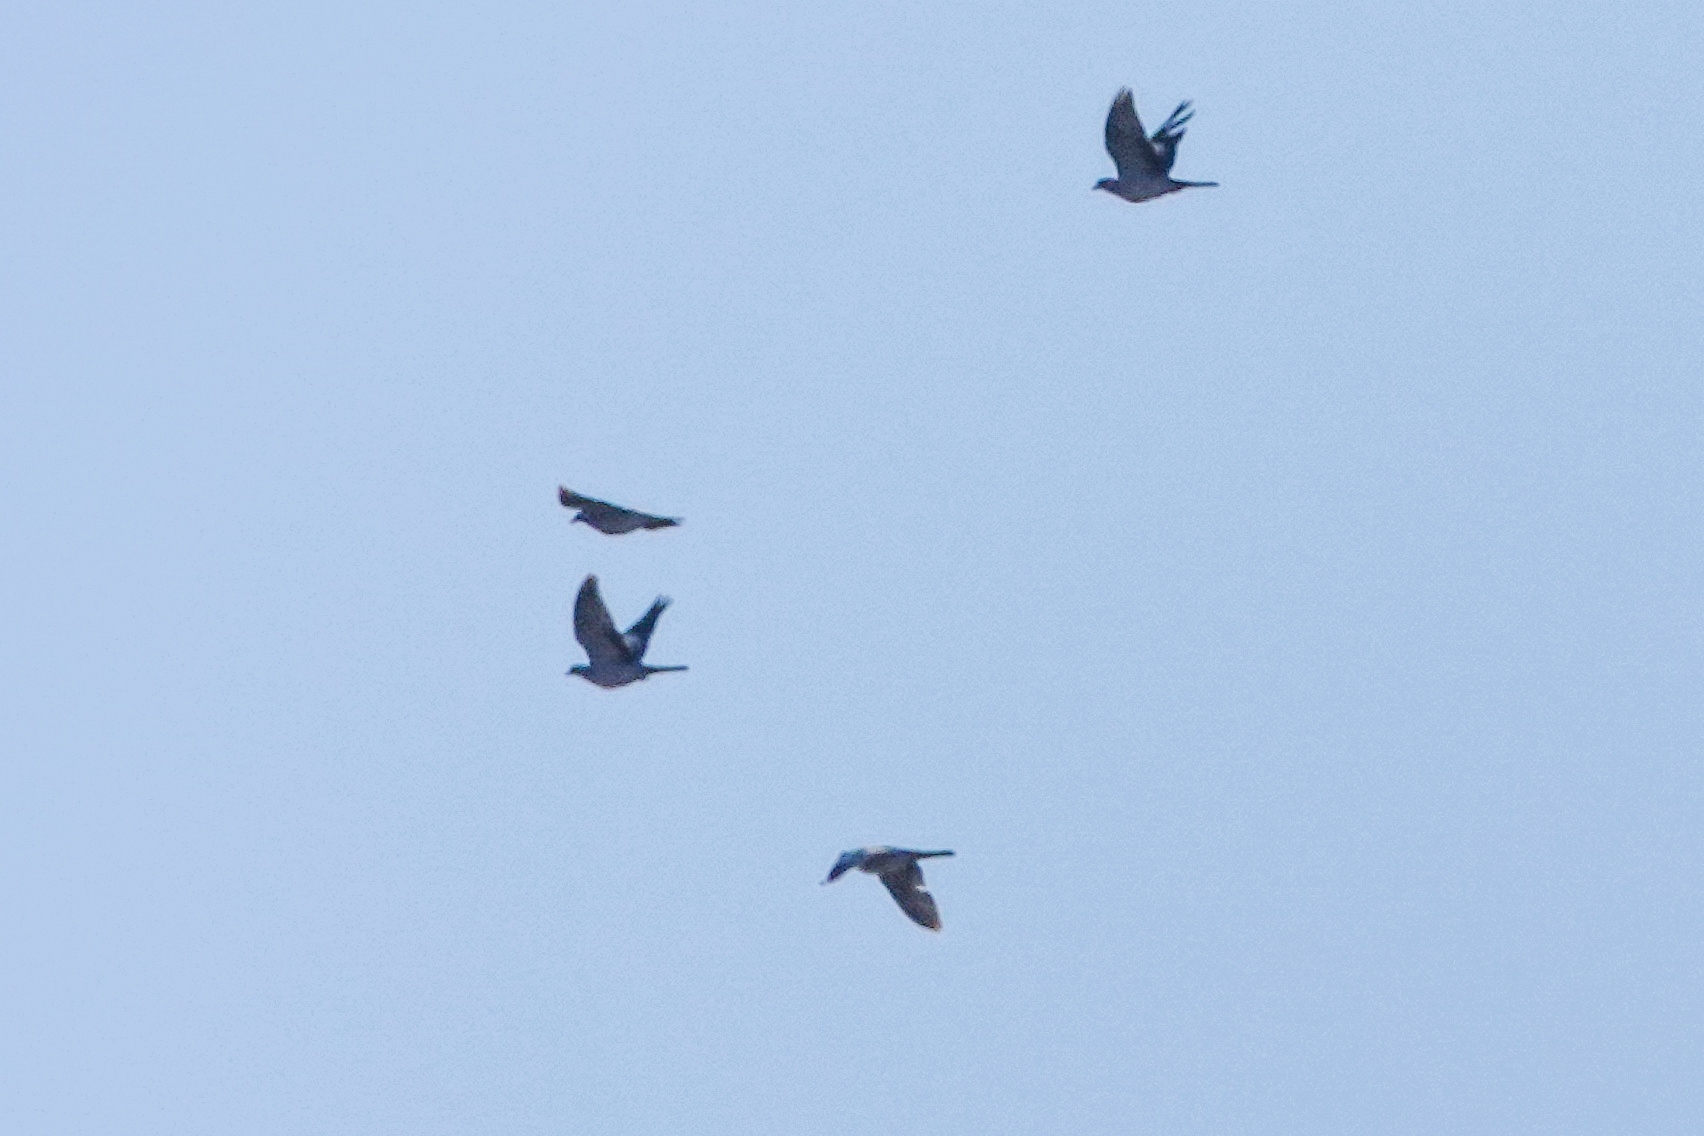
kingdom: Animalia
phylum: Chordata
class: Aves
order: Columbiformes
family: Columbidae
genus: Columba
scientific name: Columba palumbus
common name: Common wood pigeon
